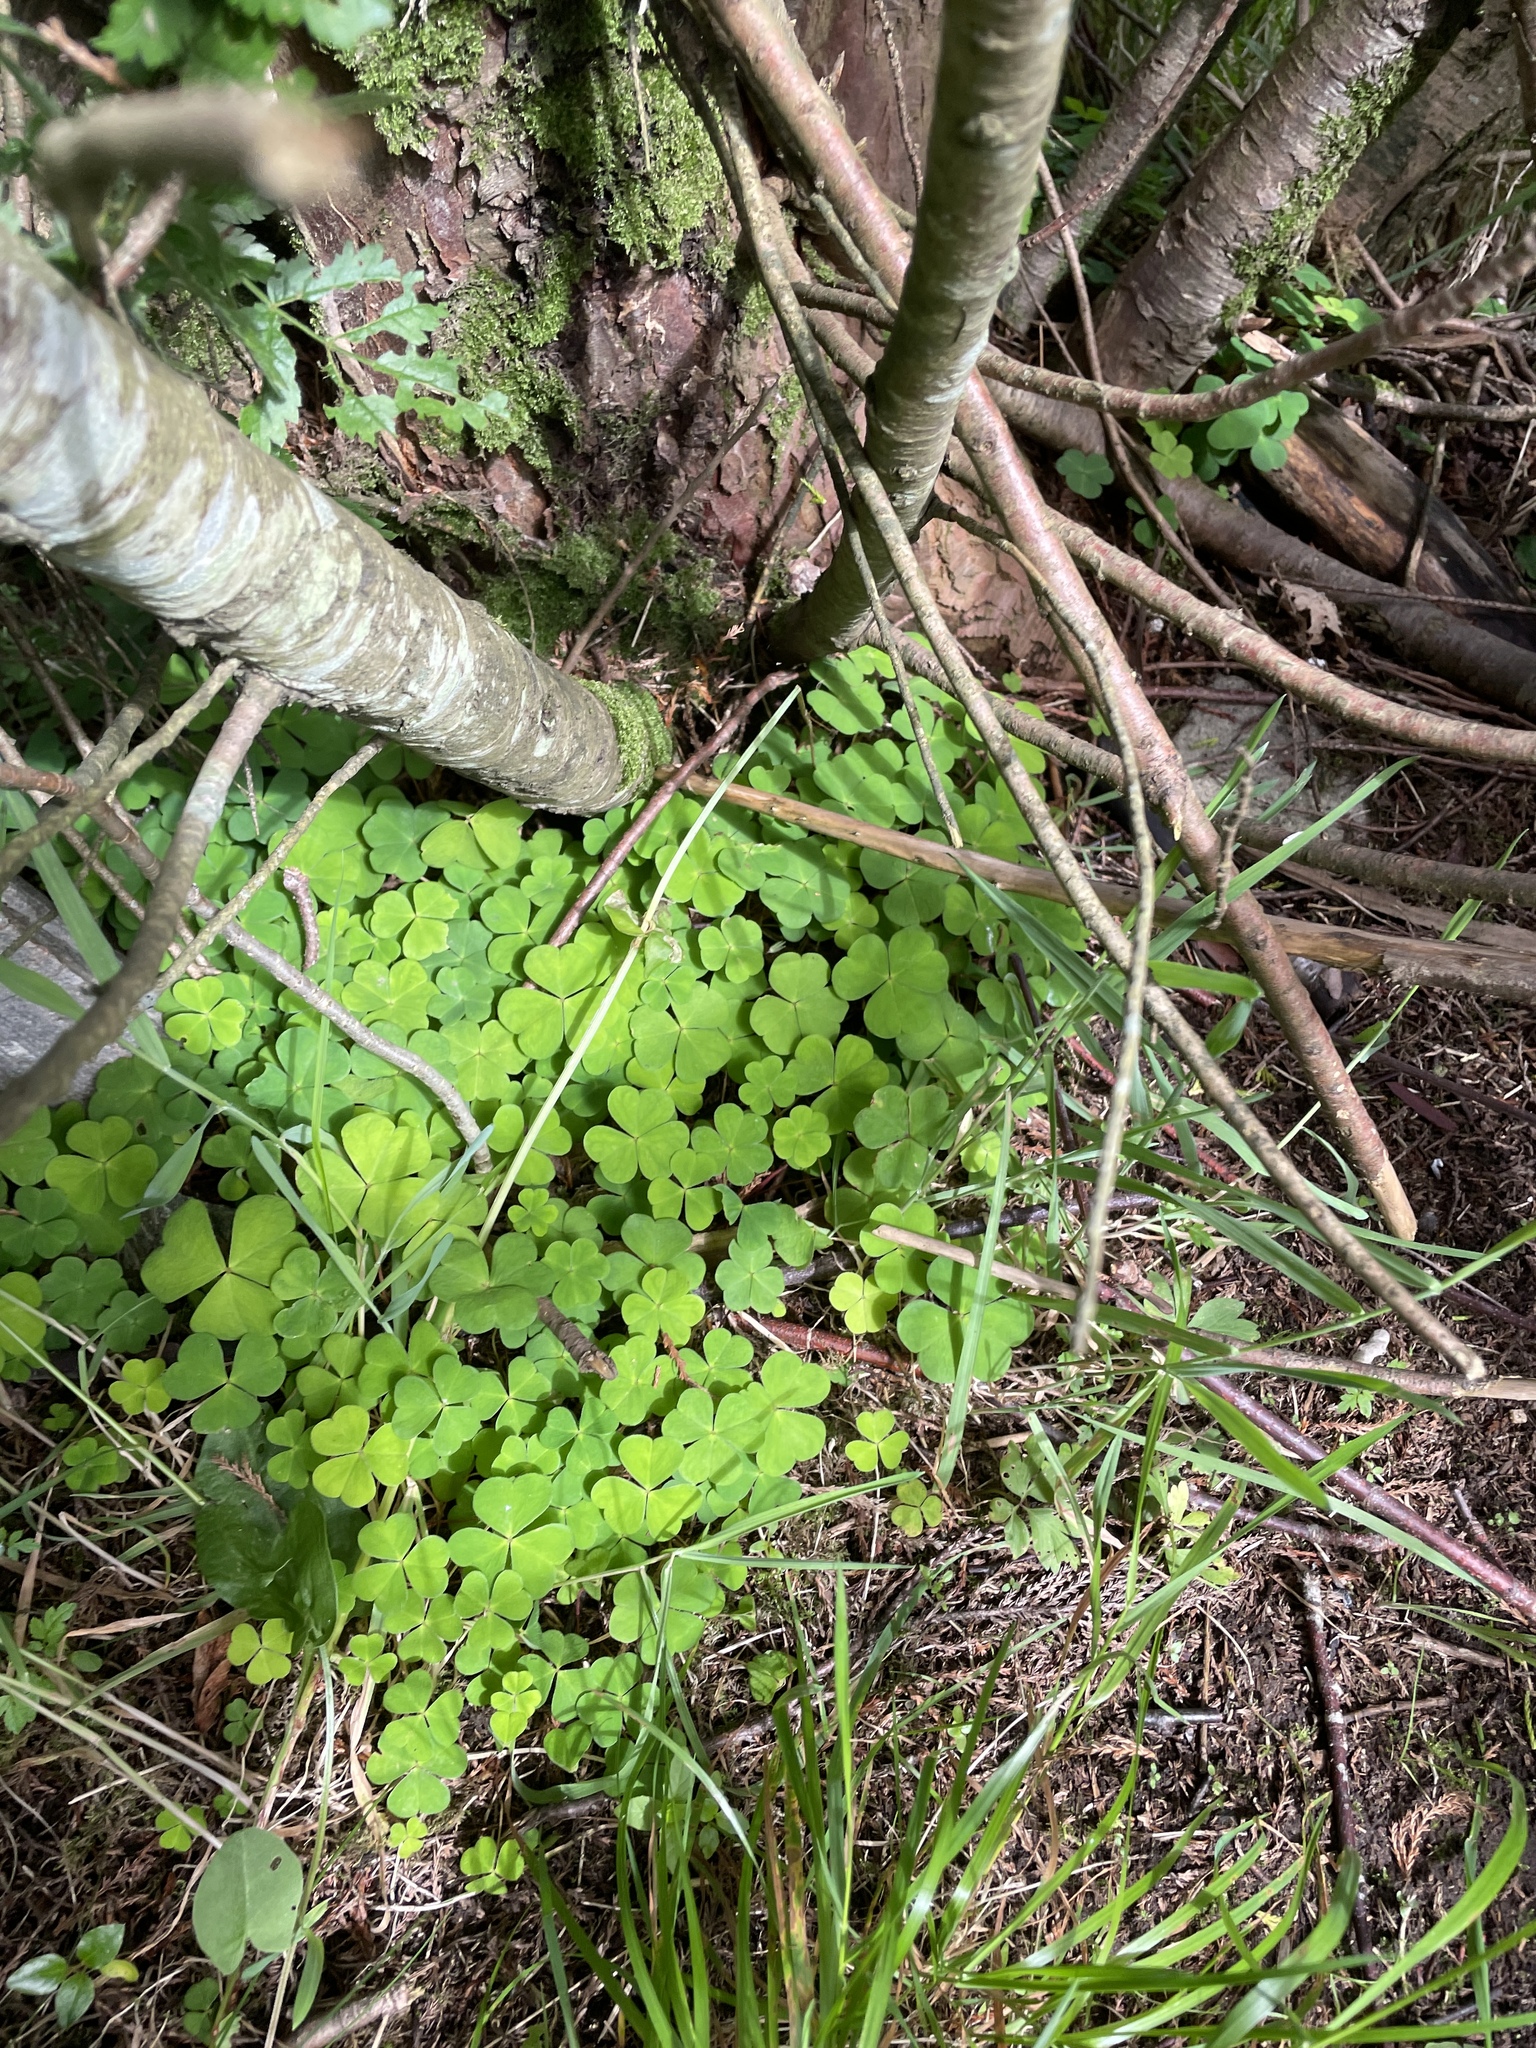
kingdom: Plantae
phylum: Tracheophyta
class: Magnoliopsida
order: Oxalidales
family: Oxalidaceae
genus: Oxalis
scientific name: Oxalis acetosella
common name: Wood-sorrel
